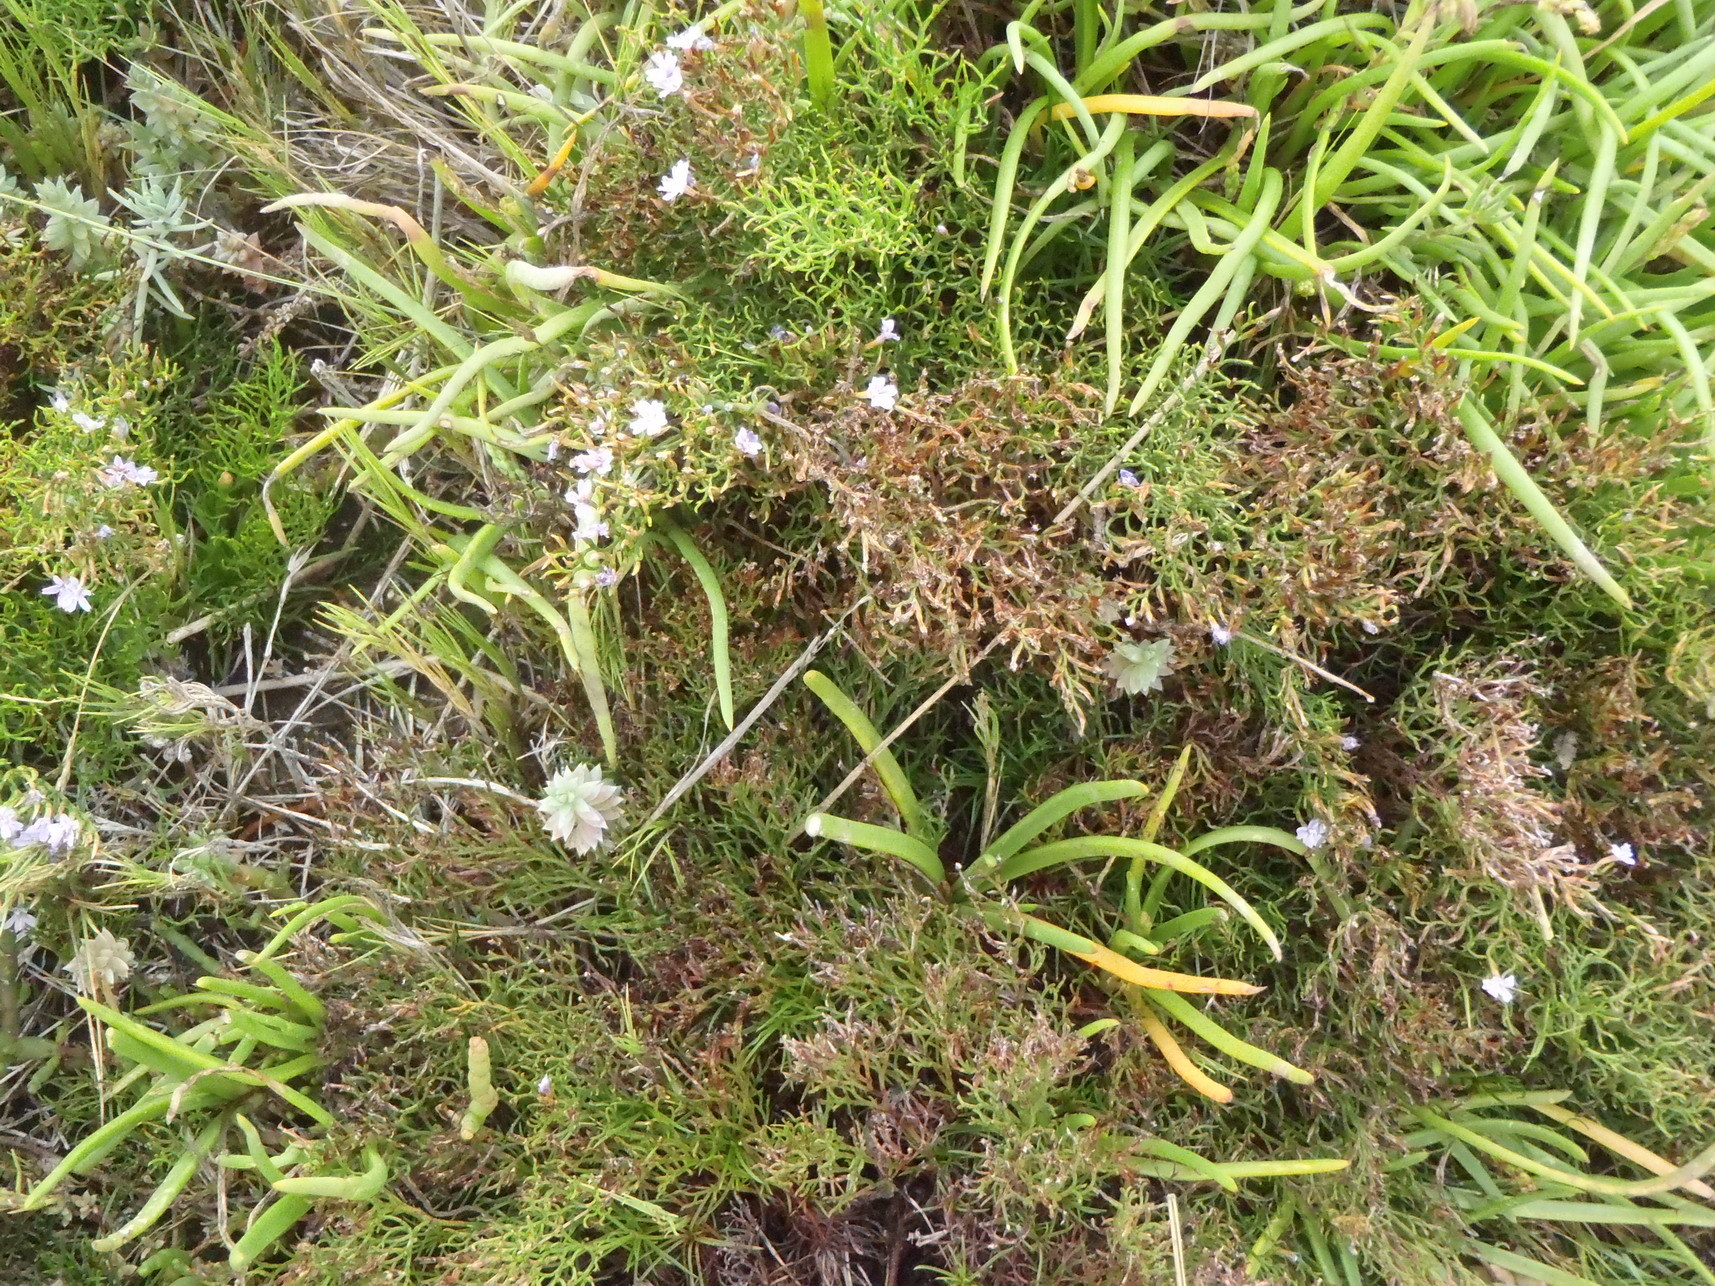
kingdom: Plantae
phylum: Tracheophyta
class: Magnoliopsida
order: Caryophyllales
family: Plumbaginaceae
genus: Limonium
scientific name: Limonium scabrum
